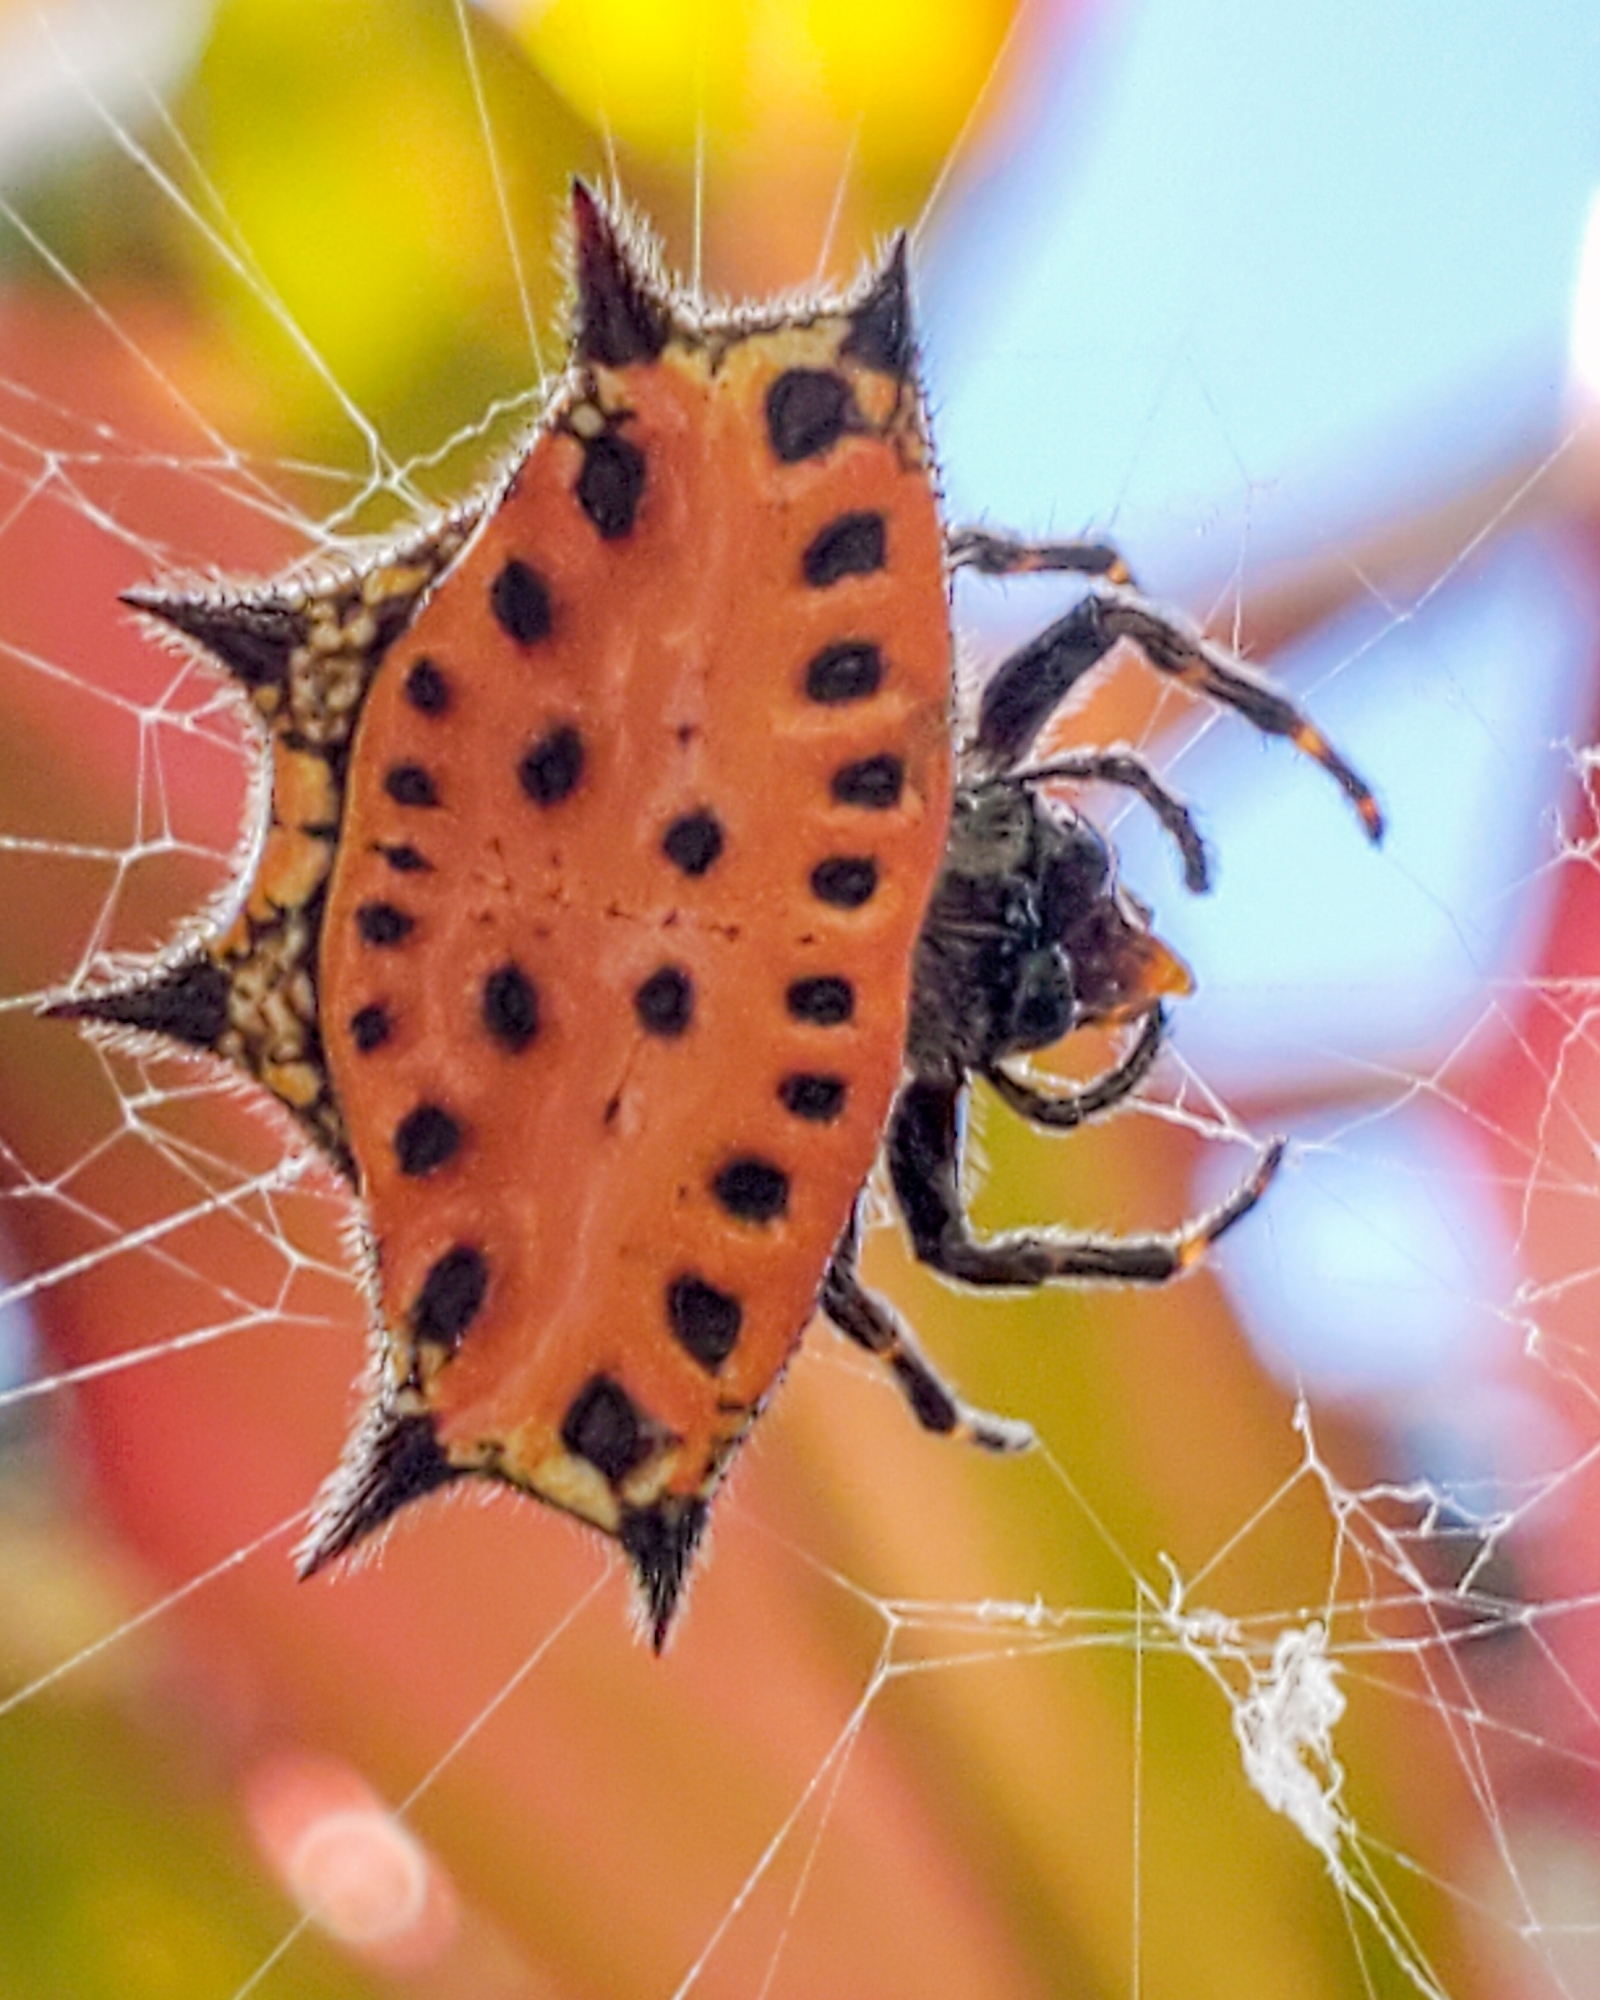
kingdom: Animalia
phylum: Arthropoda
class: Arachnida
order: Araneae
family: Araneidae
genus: Gasteracantha
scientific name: Gasteracantha cancriformis
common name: Orb weavers
